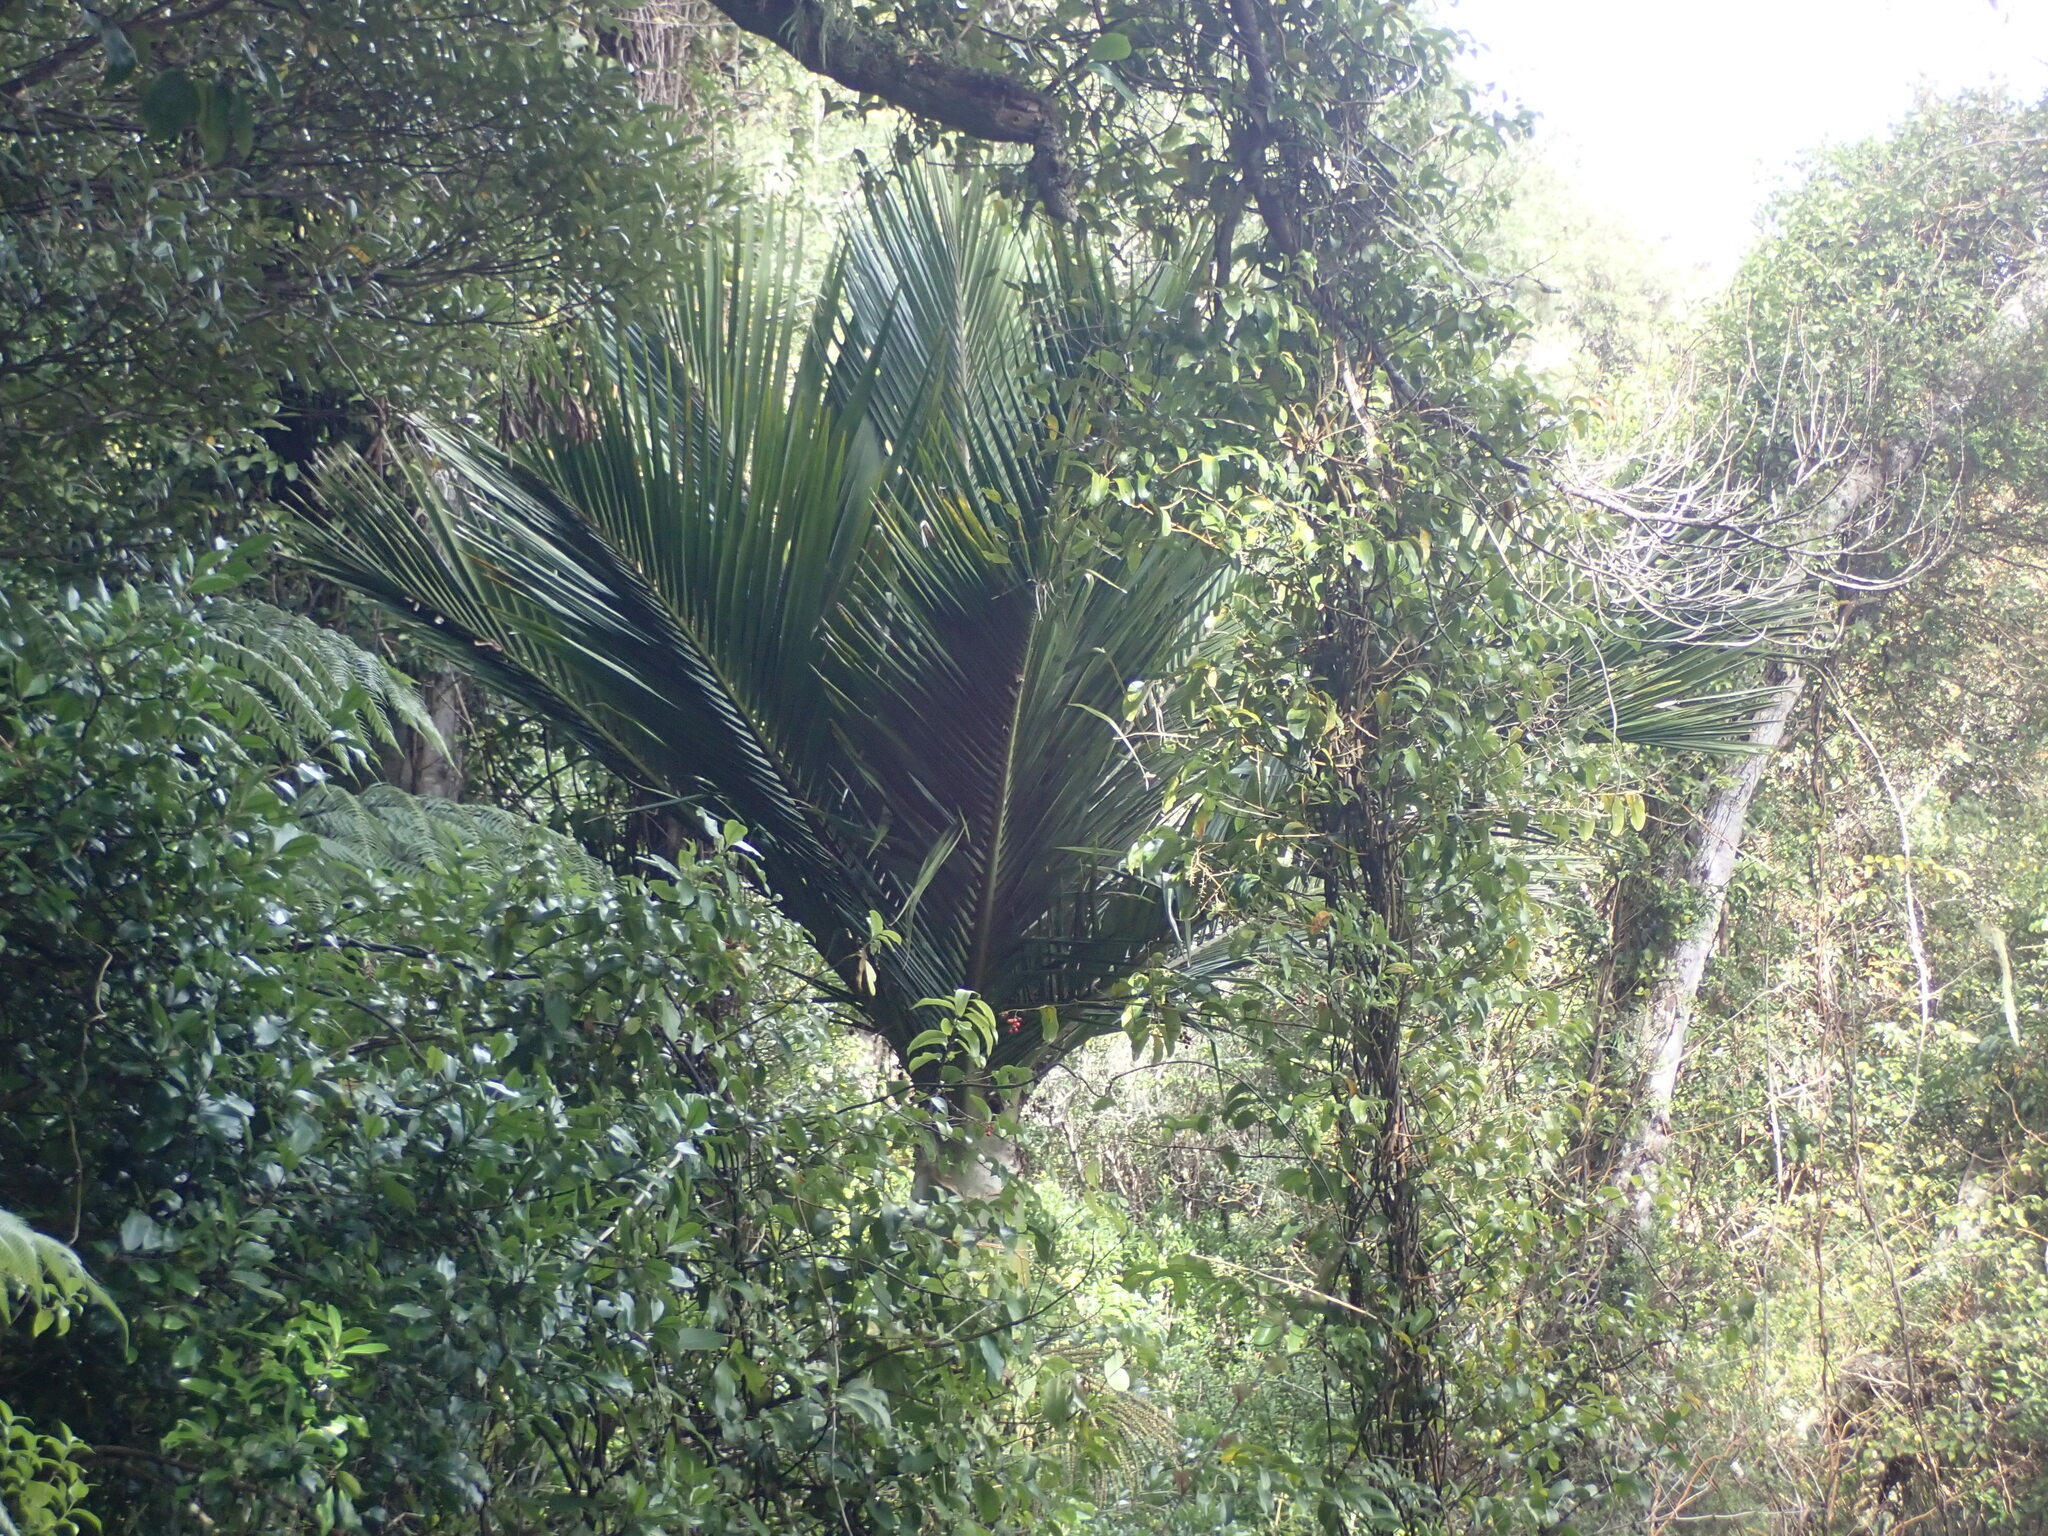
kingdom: Plantae
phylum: Tracheophyta
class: Liliopsida
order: Arecales
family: Arecaceae
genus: Rhopalostylis
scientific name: Rhopalostylis sapida
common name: Feather-duster palm
